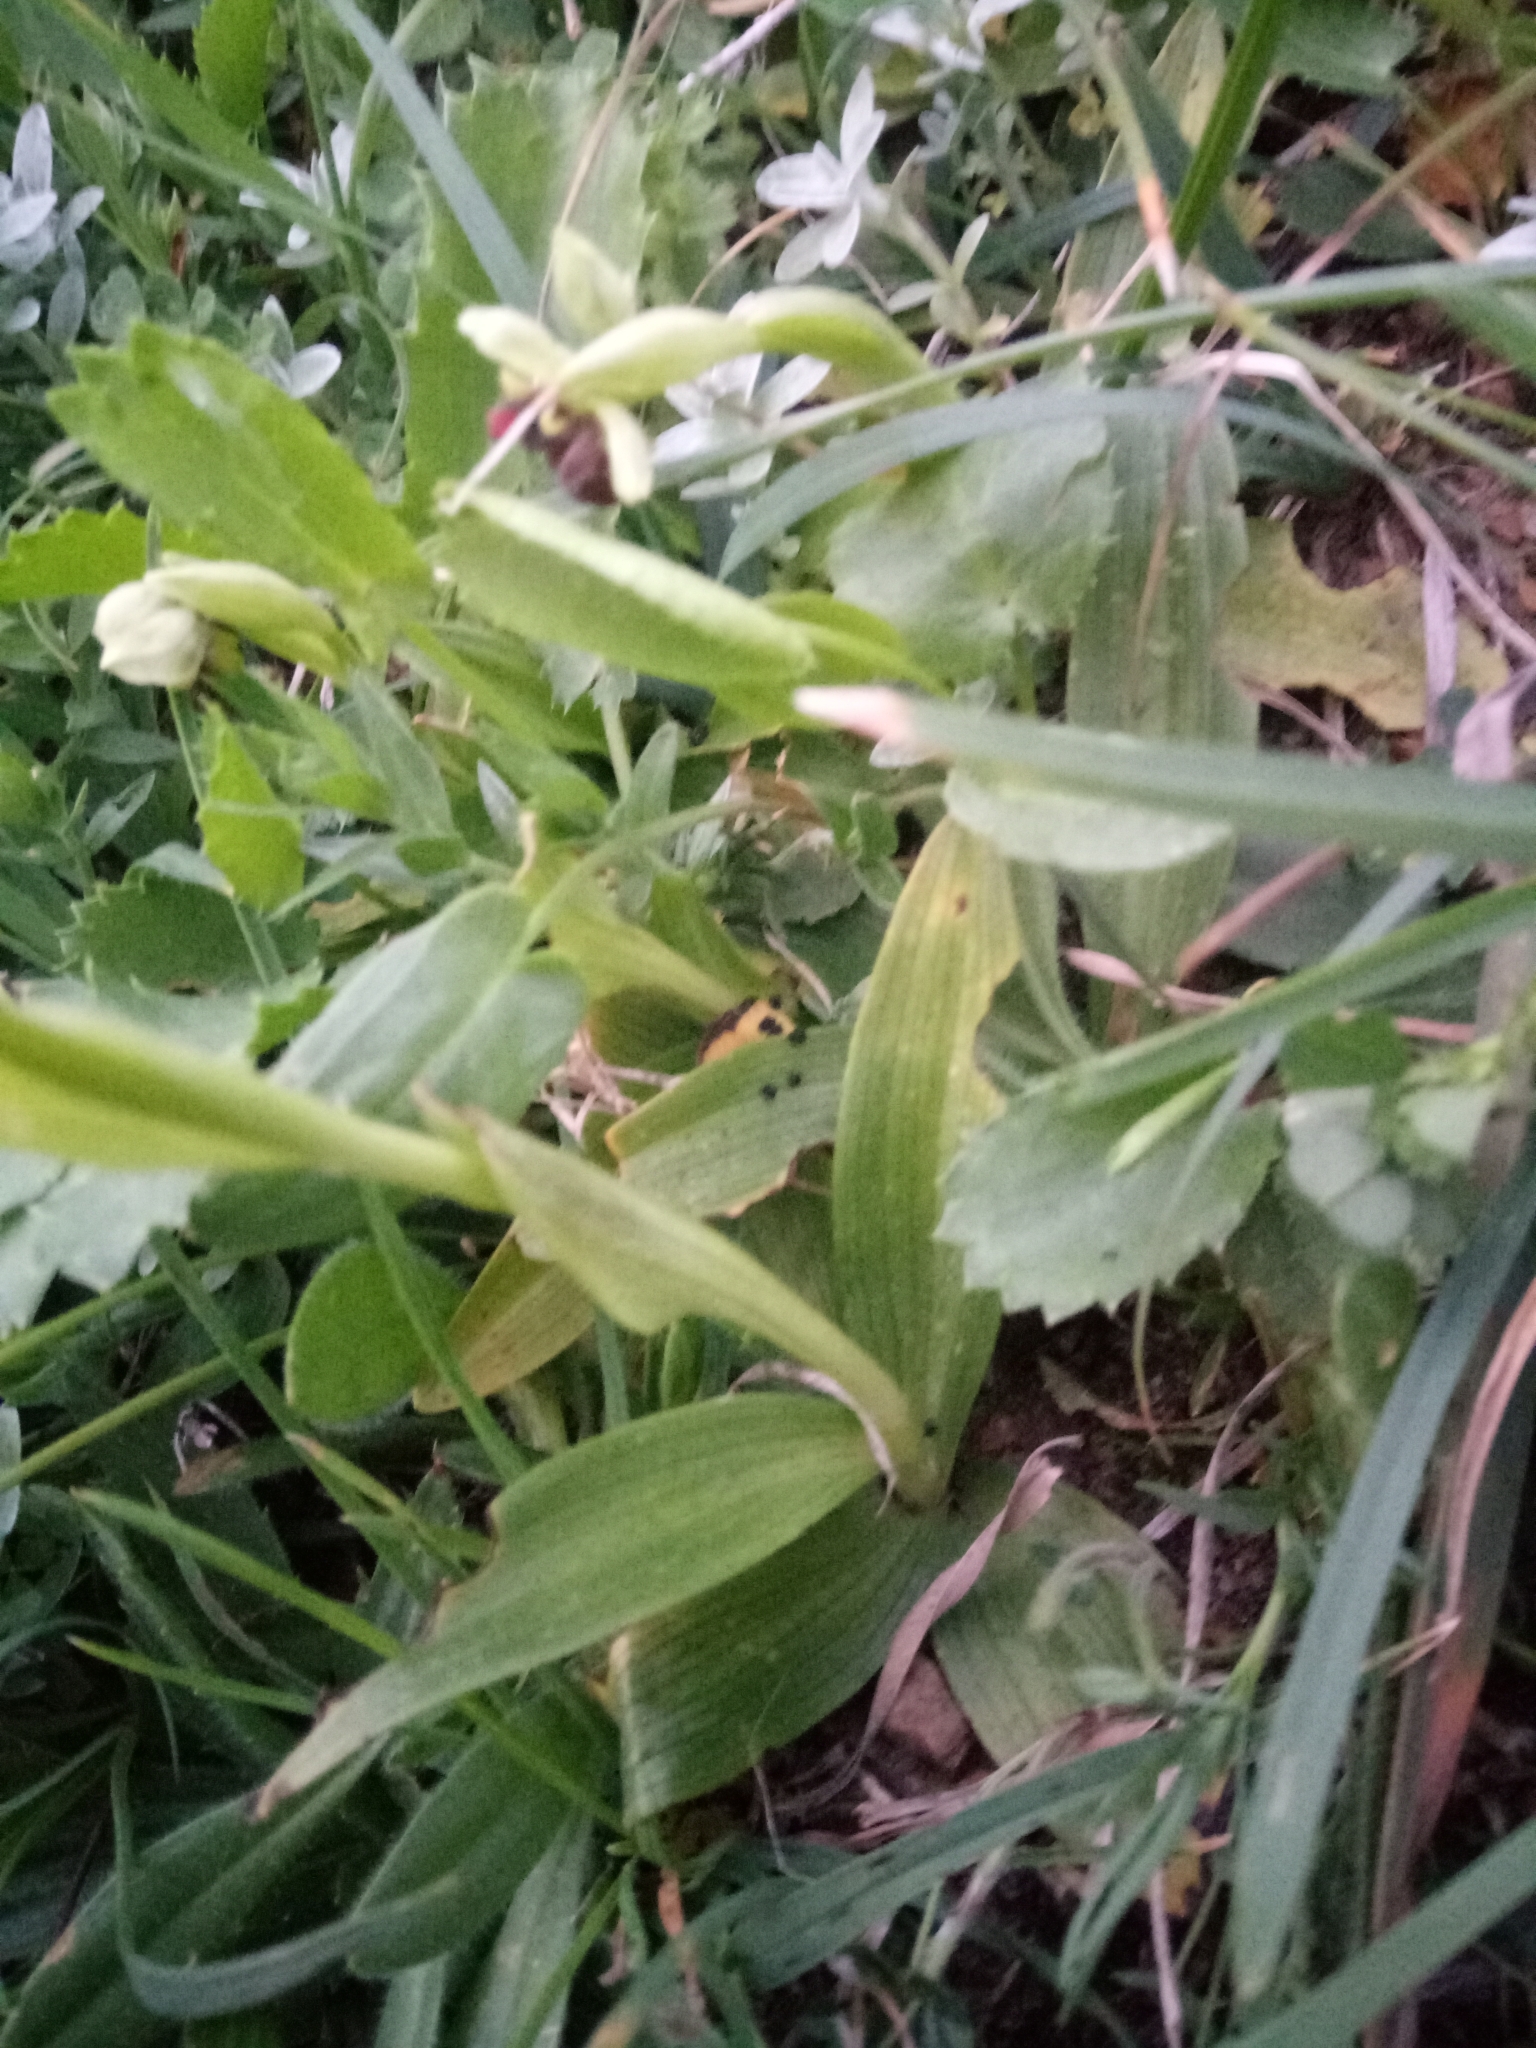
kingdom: Plantae
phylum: Tracheophyta
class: Liliopsida
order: Asparagales
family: Orchidaceae
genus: Ophrys
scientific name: Ophrys bombyliflora
